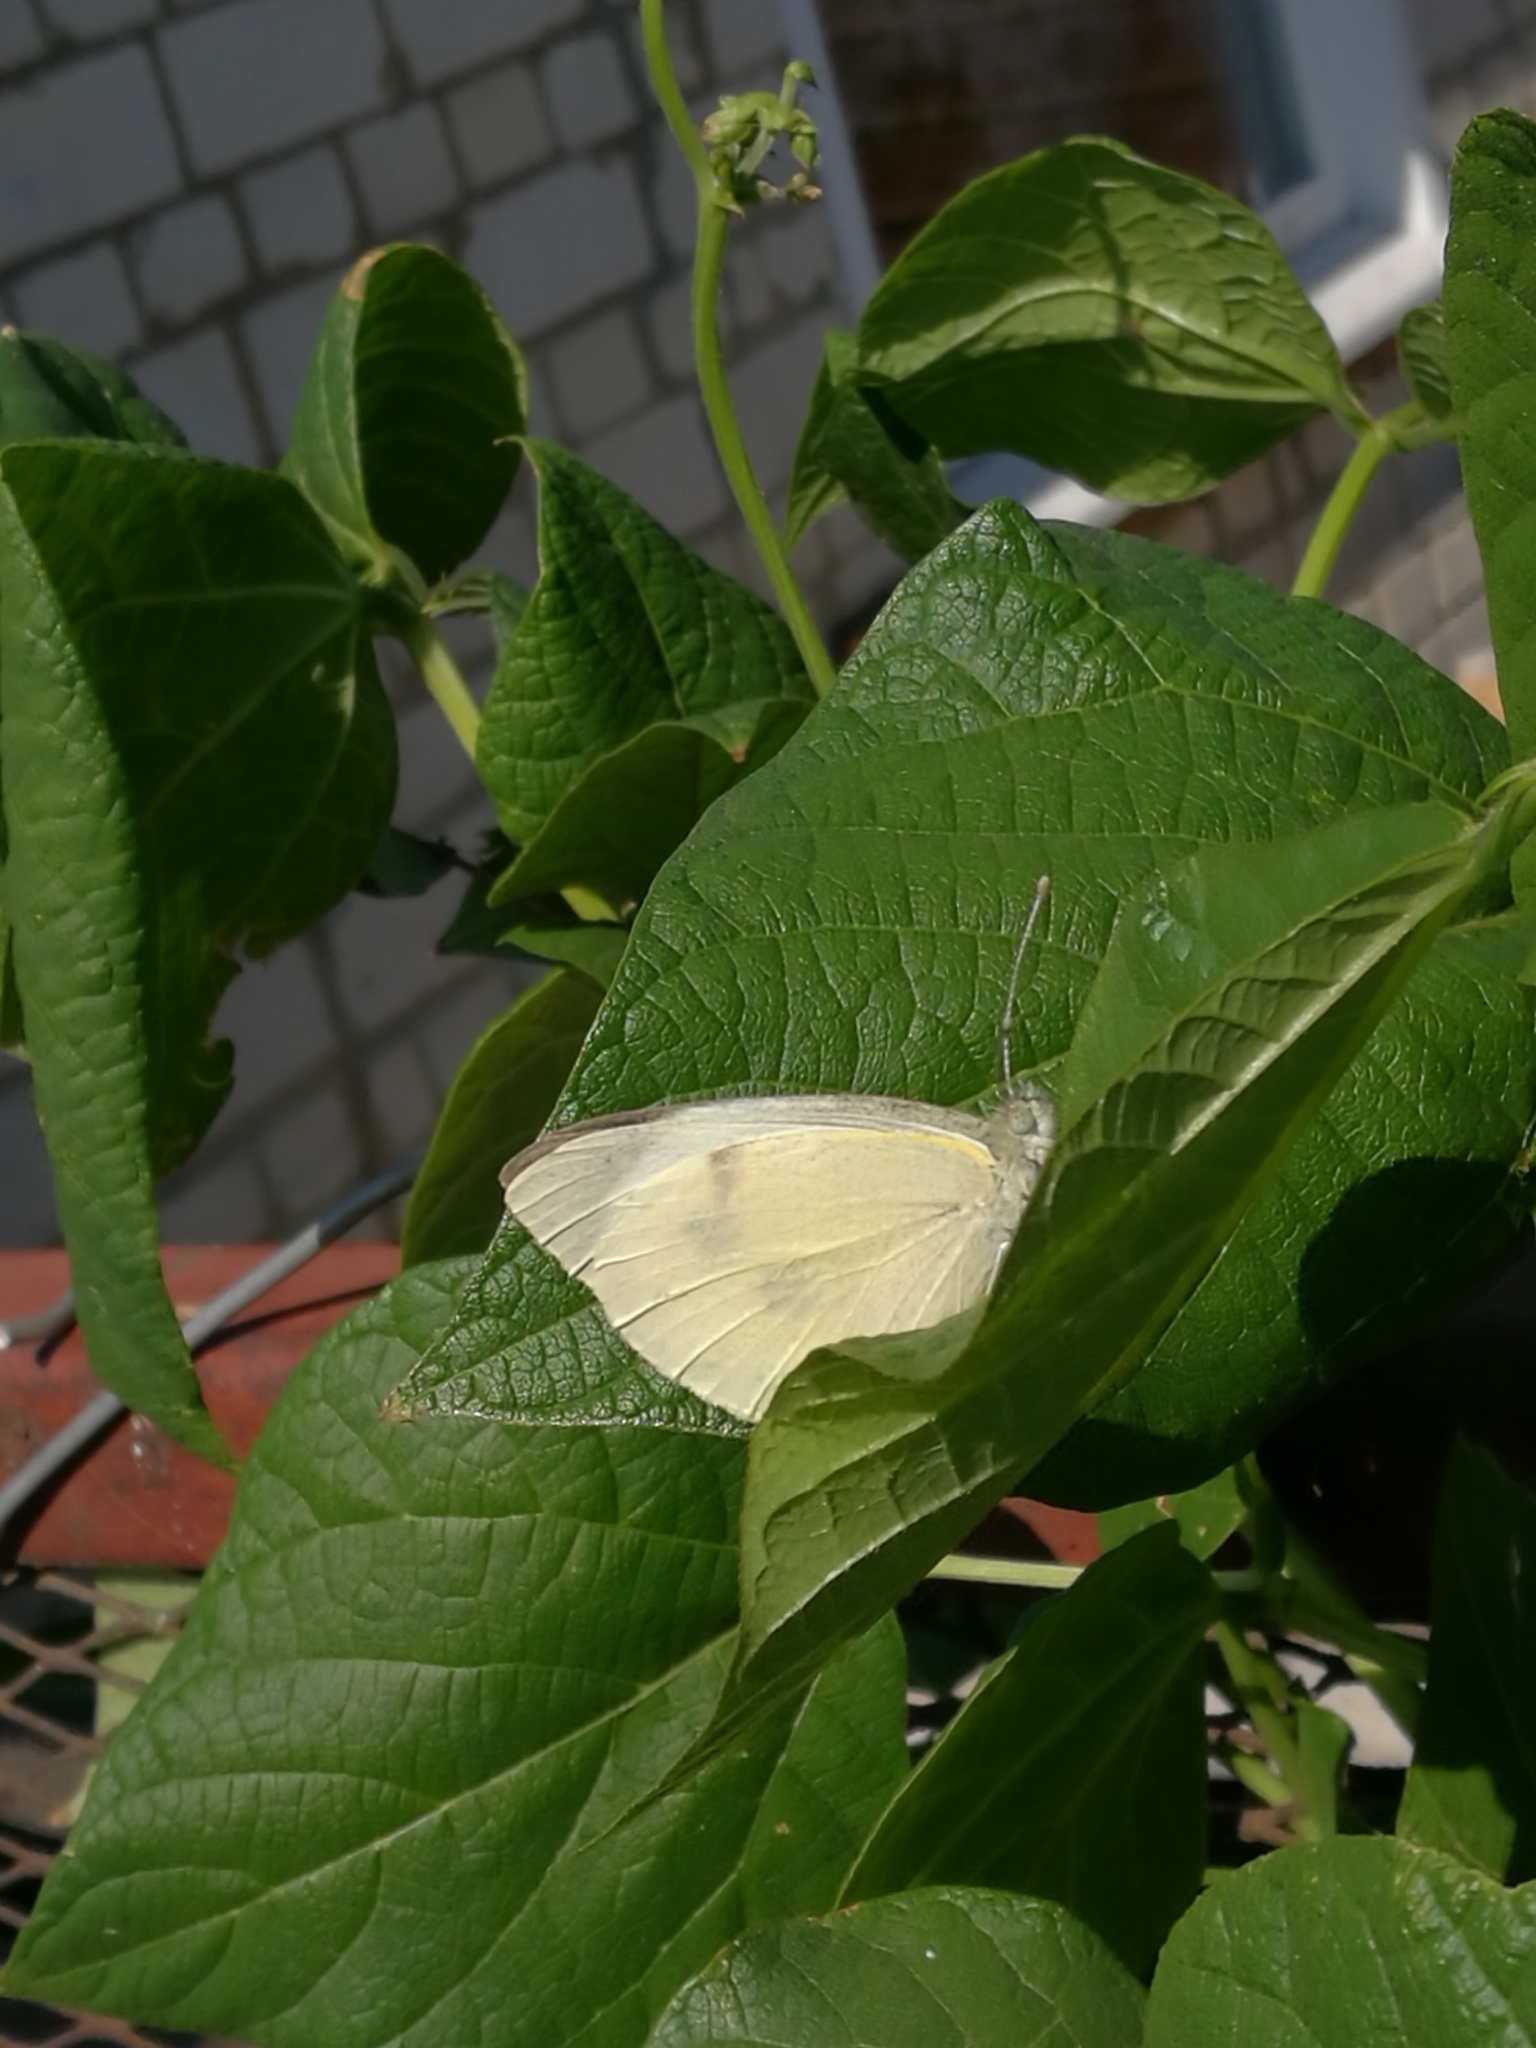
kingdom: Animalia
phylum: Arthropoda
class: Insecta
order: Lepidoptera
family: Pieridae
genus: Pieris
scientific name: Pieris brassicae
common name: Large white
